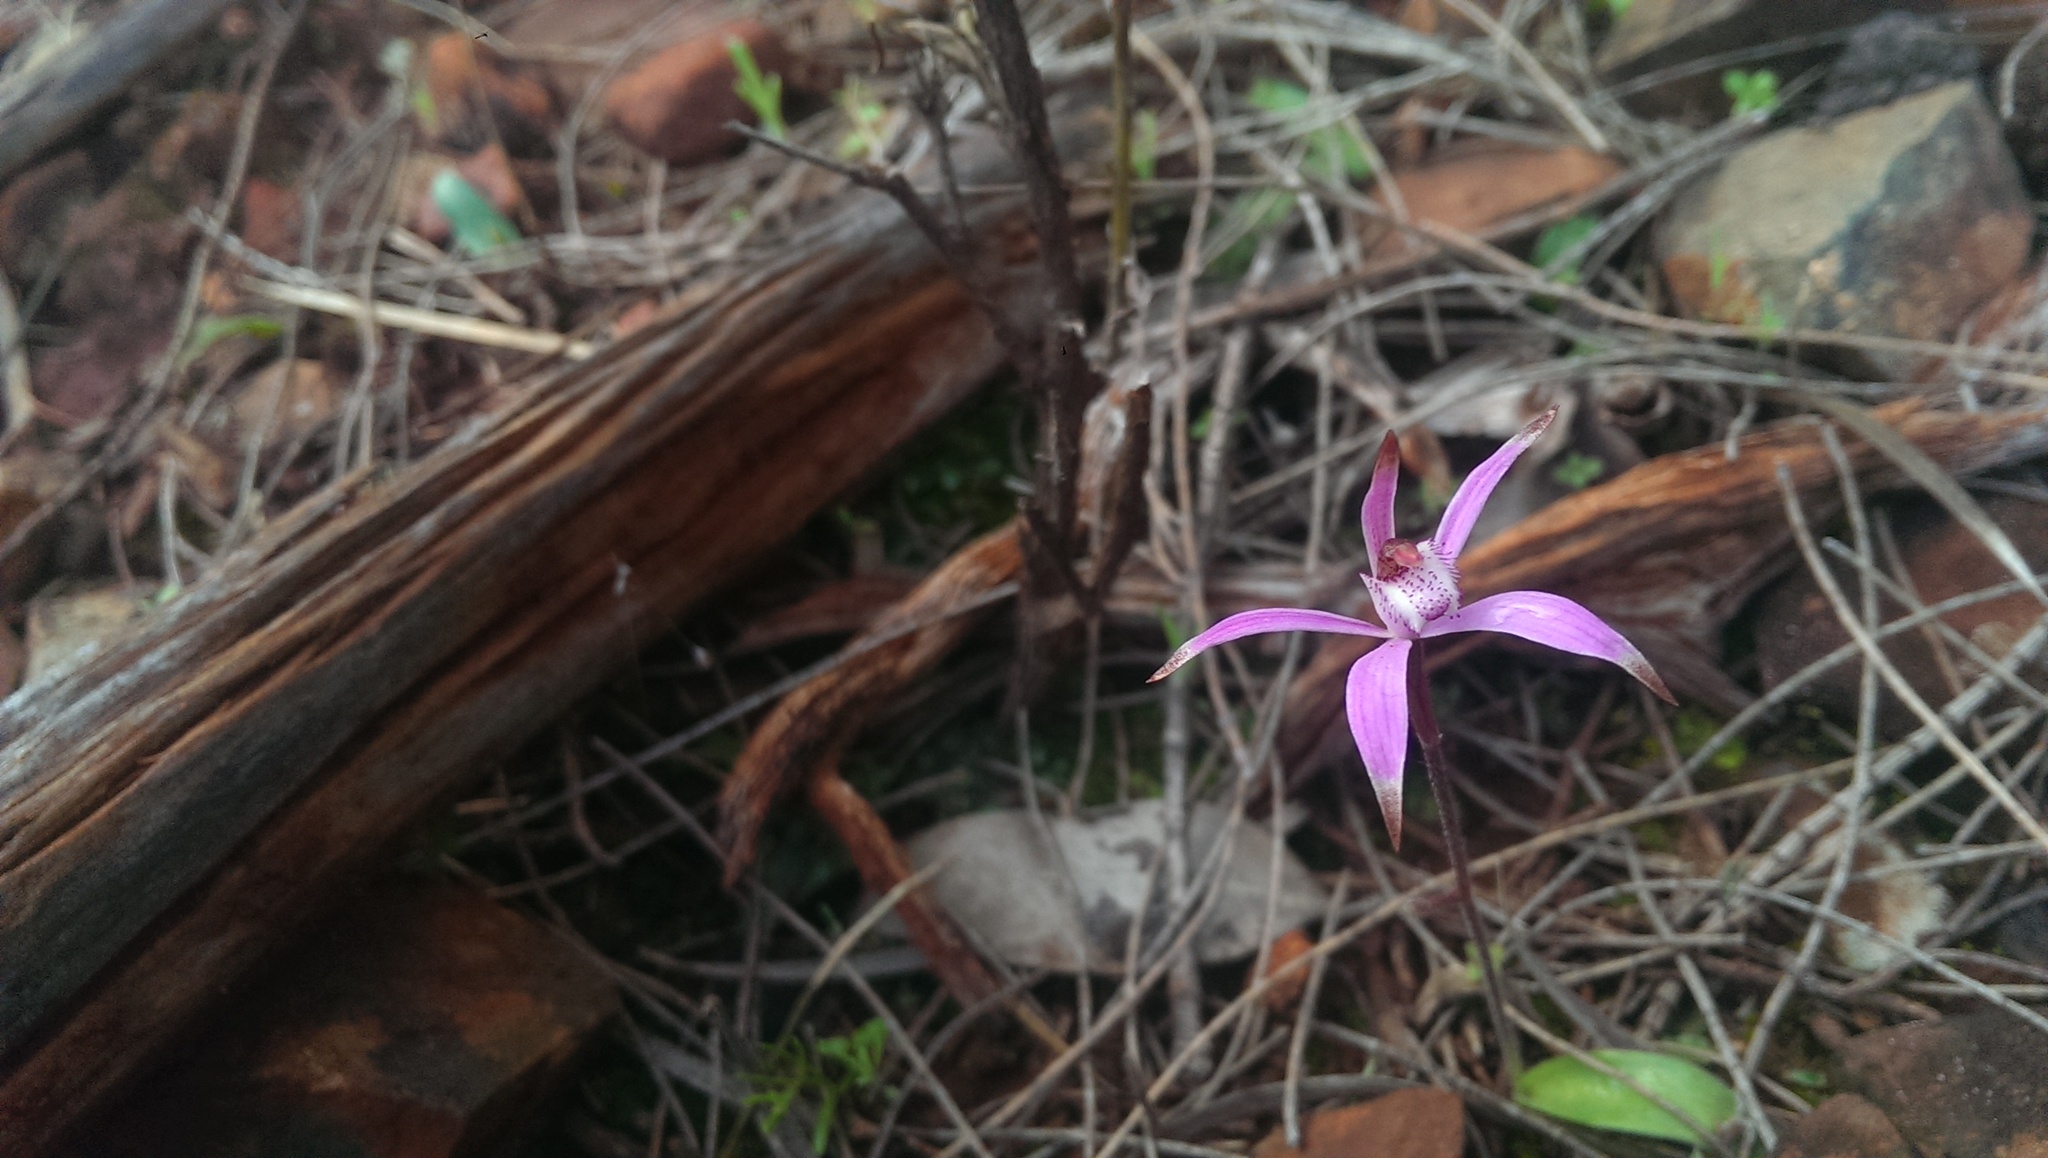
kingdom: Plantae
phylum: Tracheophyta
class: Liliopsida
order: Asparagales
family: Orchidaceae
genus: Caladenia
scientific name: Caladenia hirta
